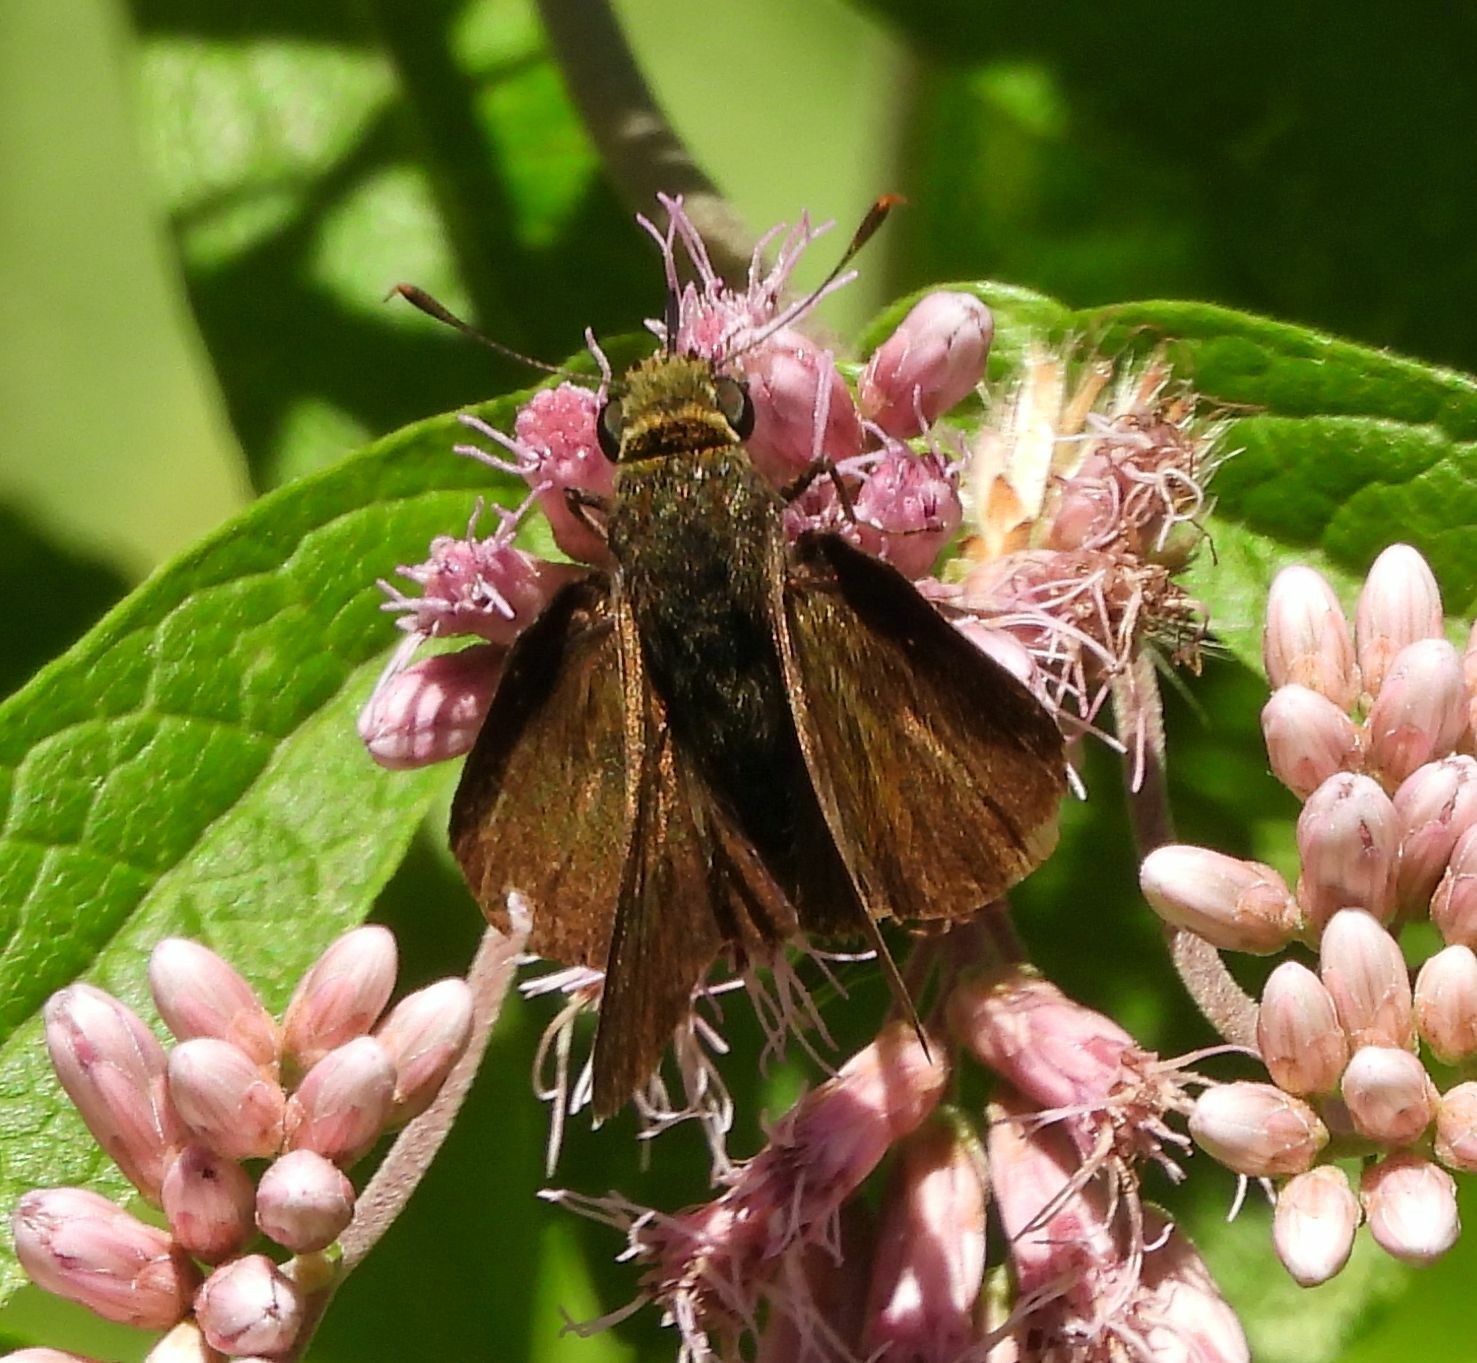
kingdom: Animalia
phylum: Arthropoda
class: Insecta
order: Lepidoptera
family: Hesperiidae
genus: Euphyes
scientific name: Euphyes vestris
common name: Dun skipper
